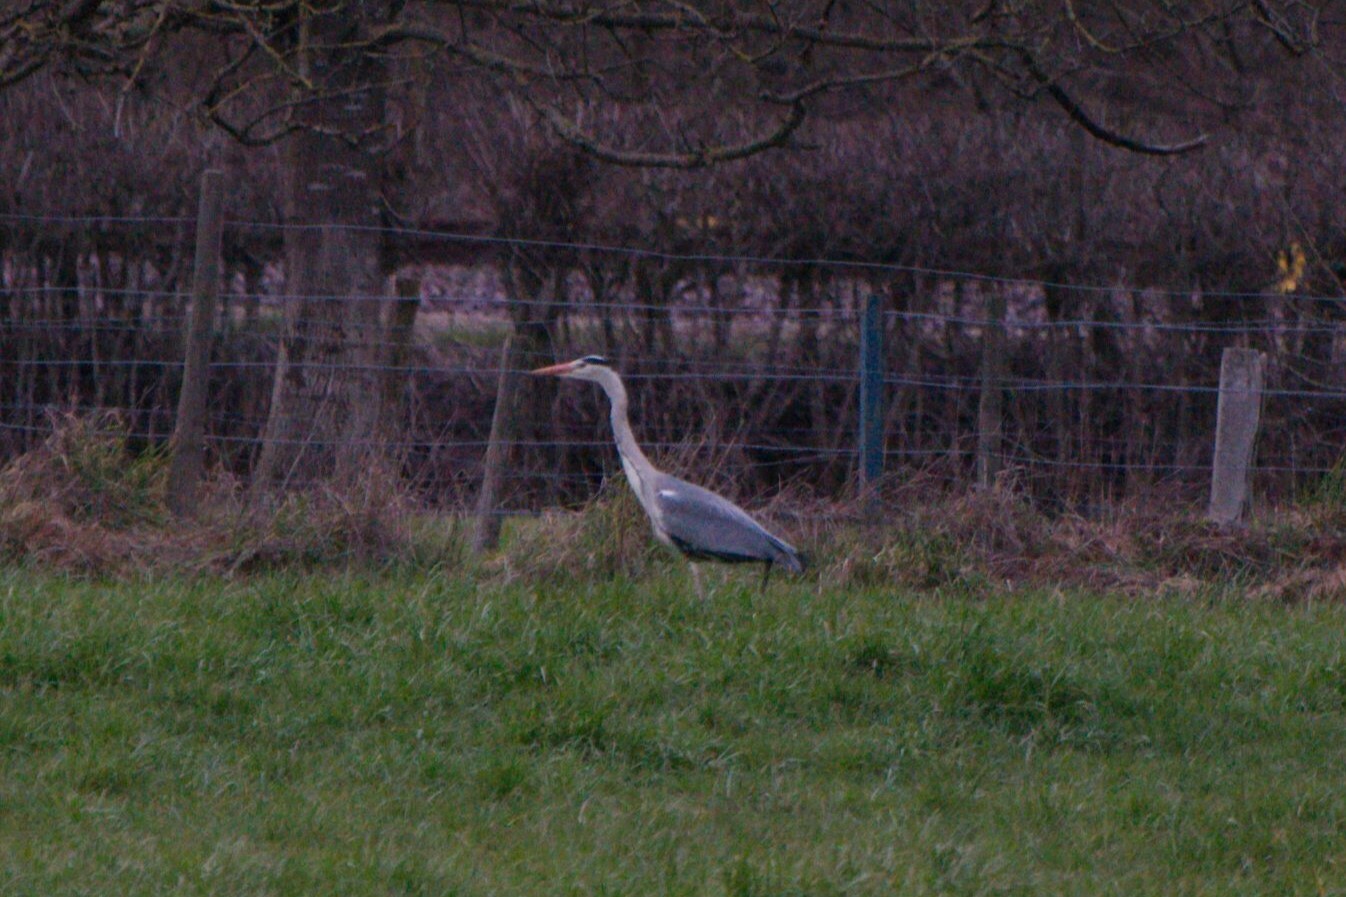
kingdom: Animalia
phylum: Chordata
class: Aves
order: Pelecaniformes
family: Ardeidae
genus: Ardea
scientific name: Ardea cinerea
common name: Grey heron
